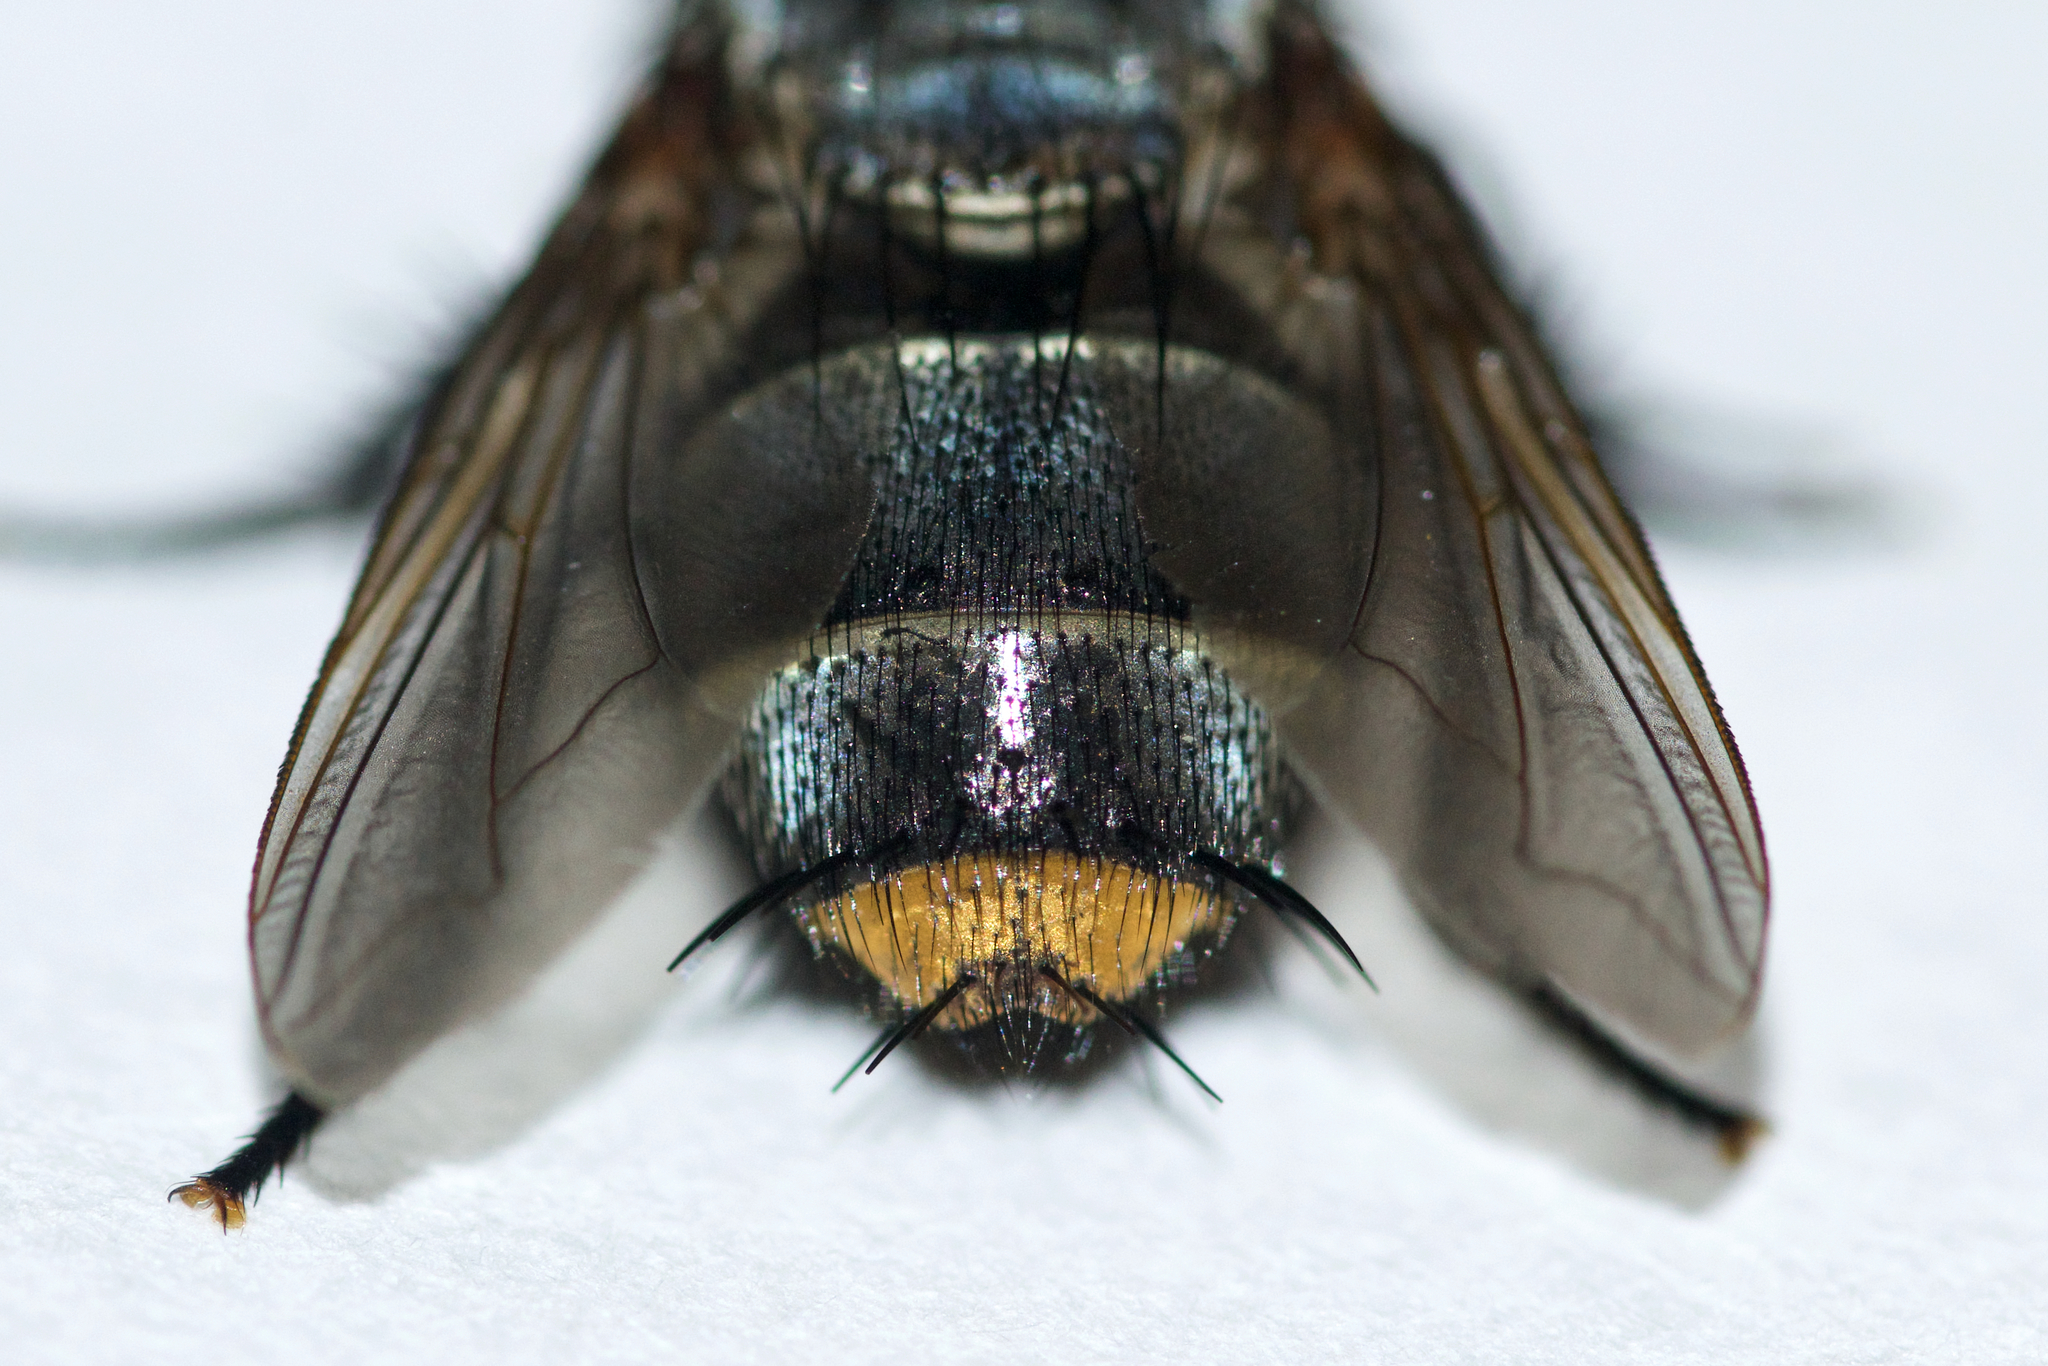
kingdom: Animalia
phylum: Arthropoda
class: Insecta
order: Diptera
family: Tachinidae
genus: Belvosia
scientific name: Belvosia unifasciata
